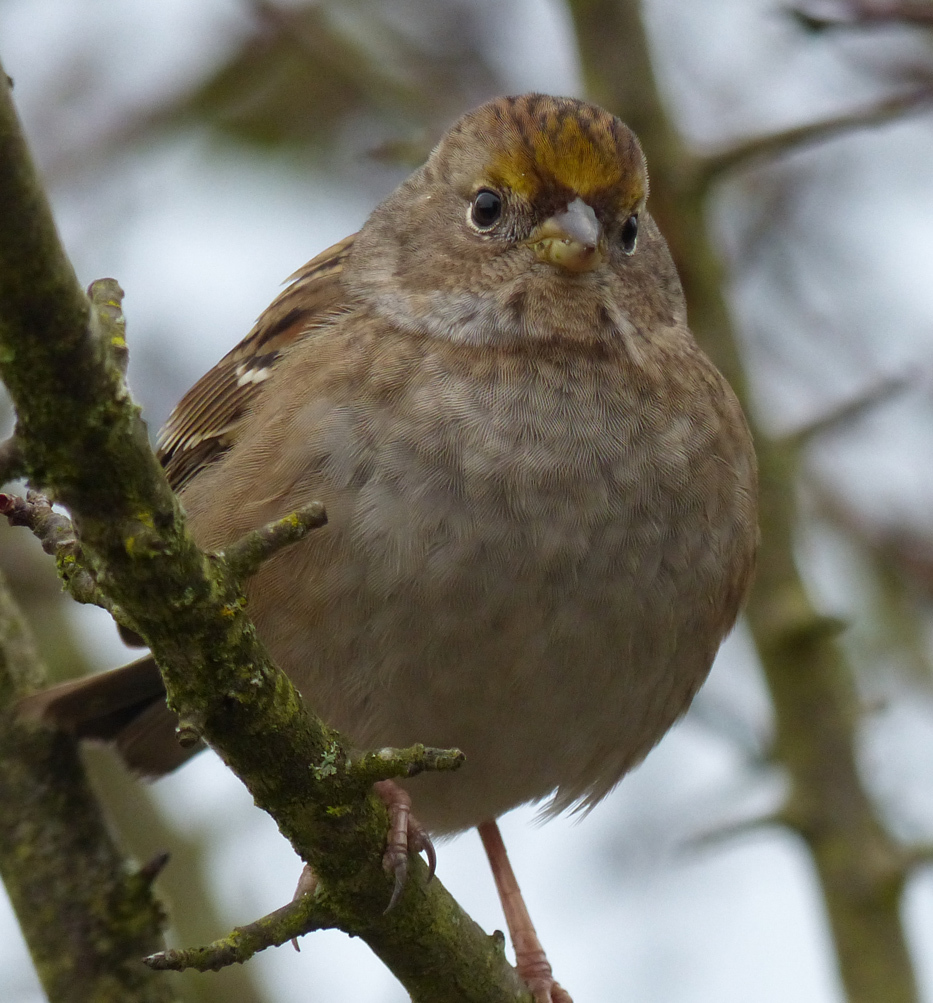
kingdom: Animalia
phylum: Chordata
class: Aves
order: Passeriformes
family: Passerellidae
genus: Zonotrichia
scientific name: Zonotrichia atricapilla
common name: Golden-crowned sparrow
